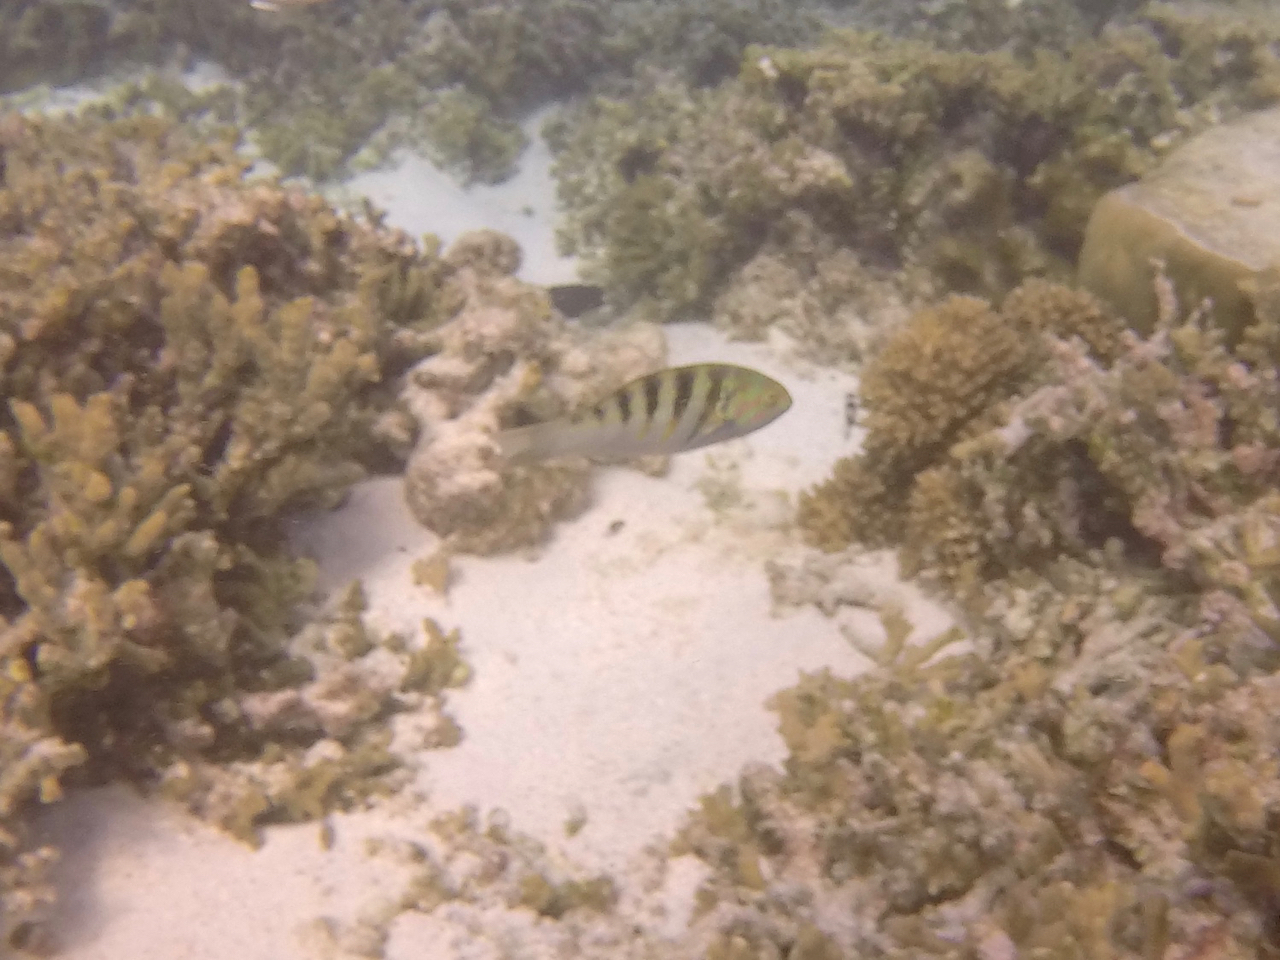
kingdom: Animalia
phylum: Chordata
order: Perciformes
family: Labridae
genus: Thalassoma
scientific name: Thalassoma hardwicke
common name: Sixbar wrasse
